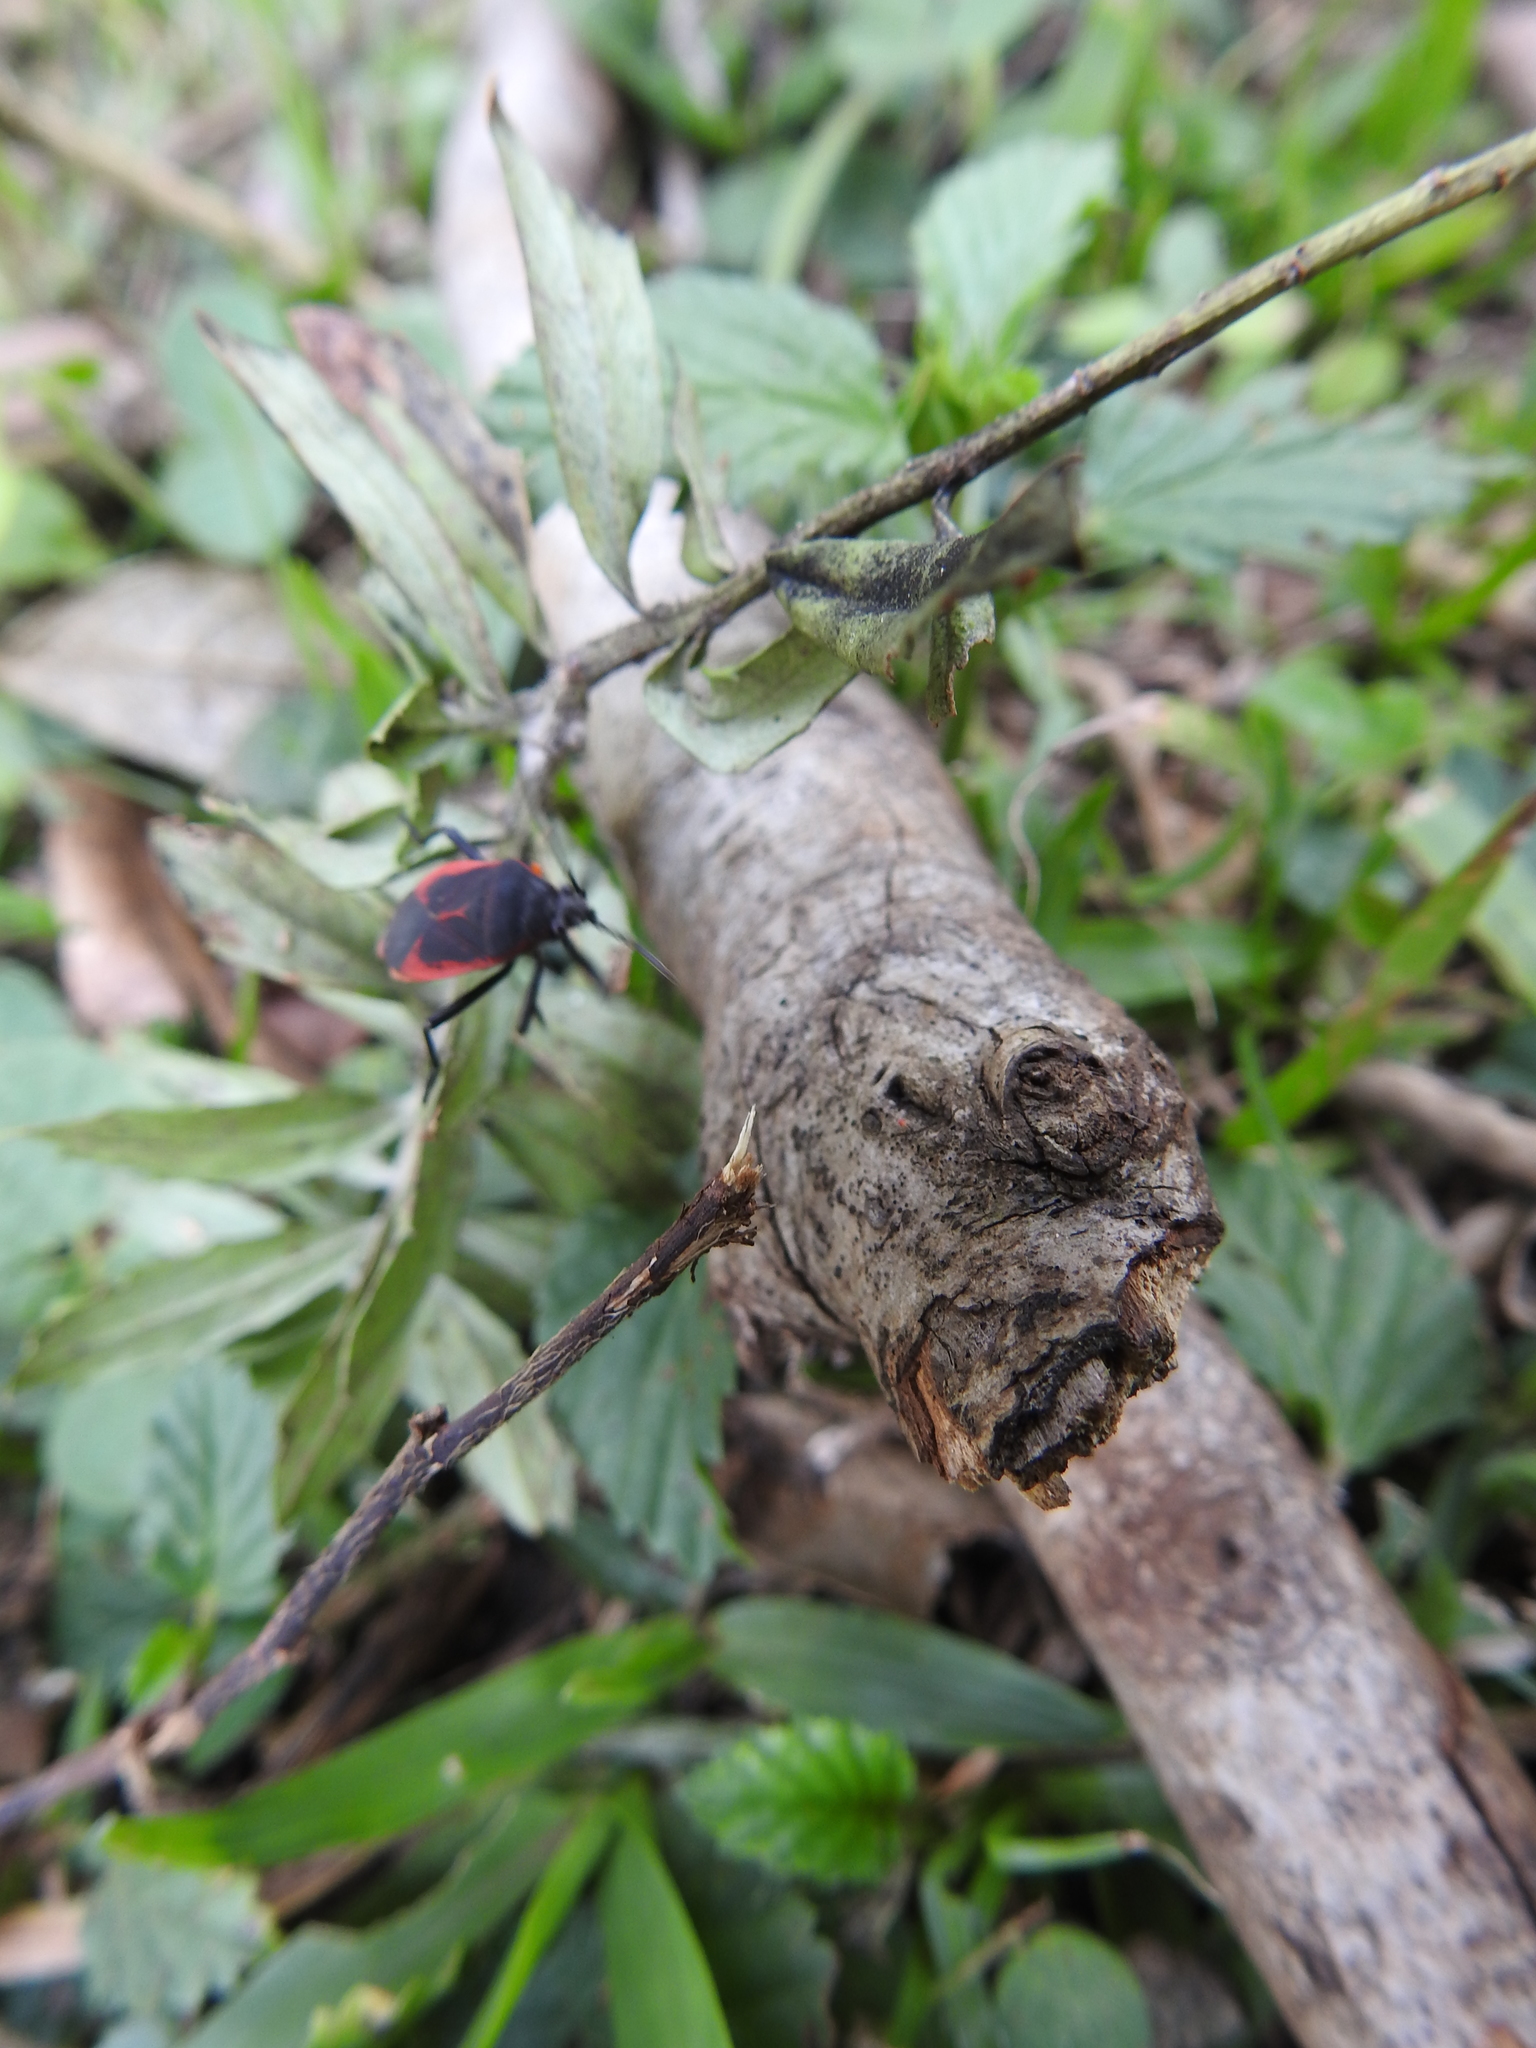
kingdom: Animalia
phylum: Arthropoda
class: Insecta
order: Hemiptera
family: Largidae
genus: Largus
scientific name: Largus rufipennis
